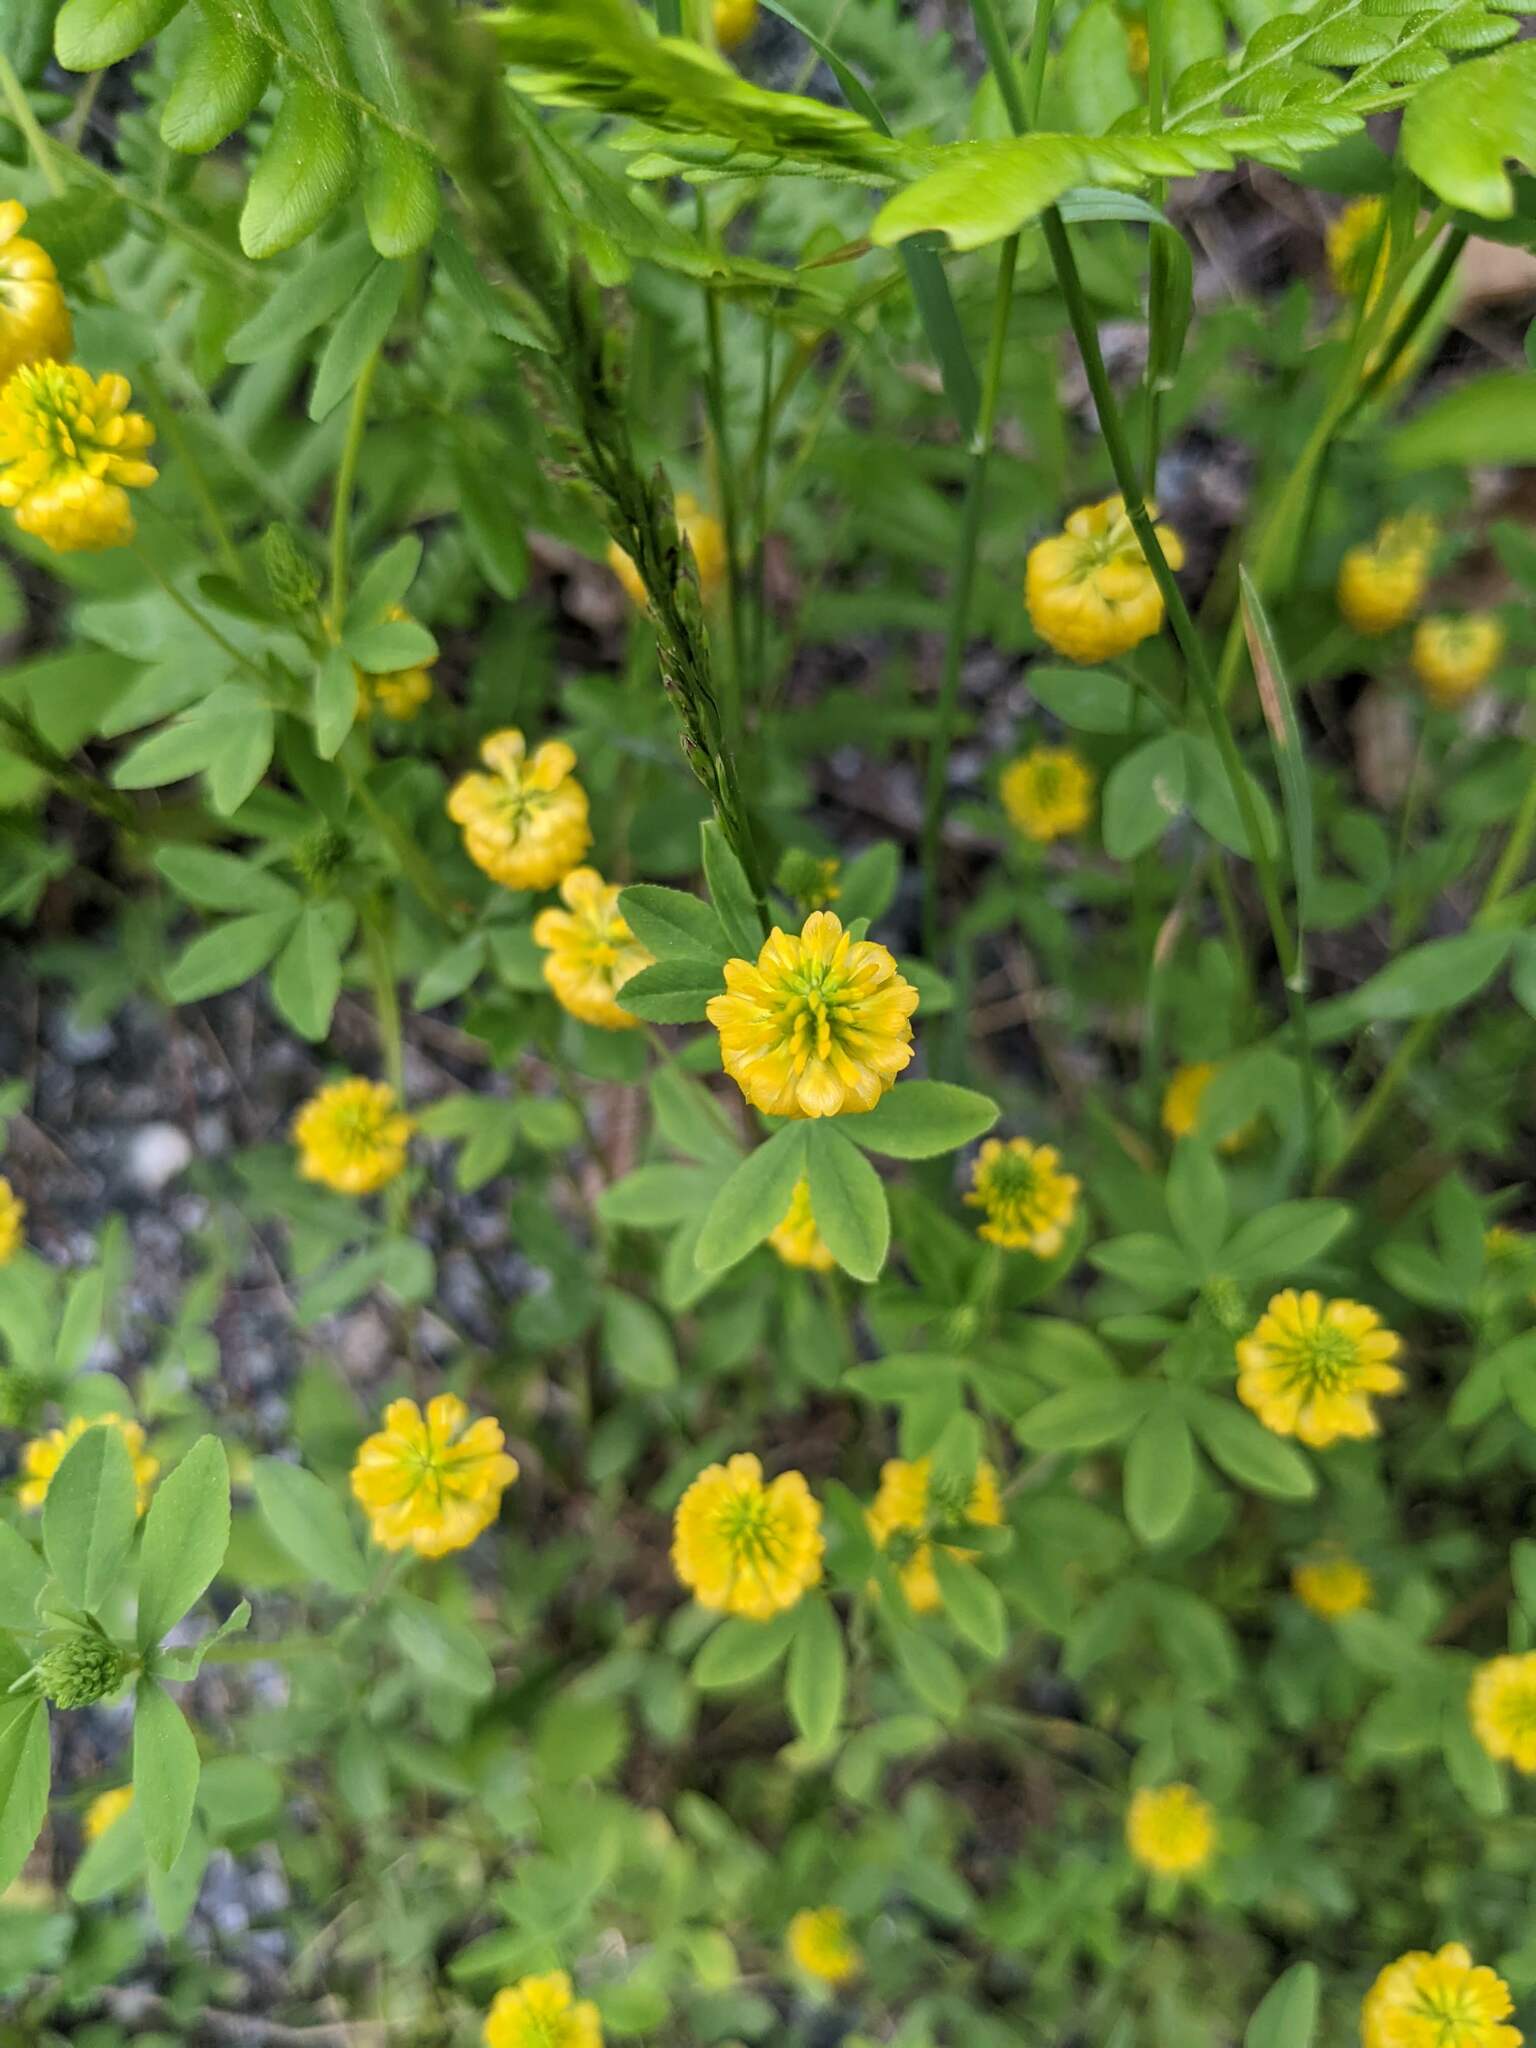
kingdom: Plantae
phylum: Tracheophyta
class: Magnoliopsida
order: Fabales
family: Fabaceae
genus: Trifolium
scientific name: Trifolium aureum
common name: Golden clover
